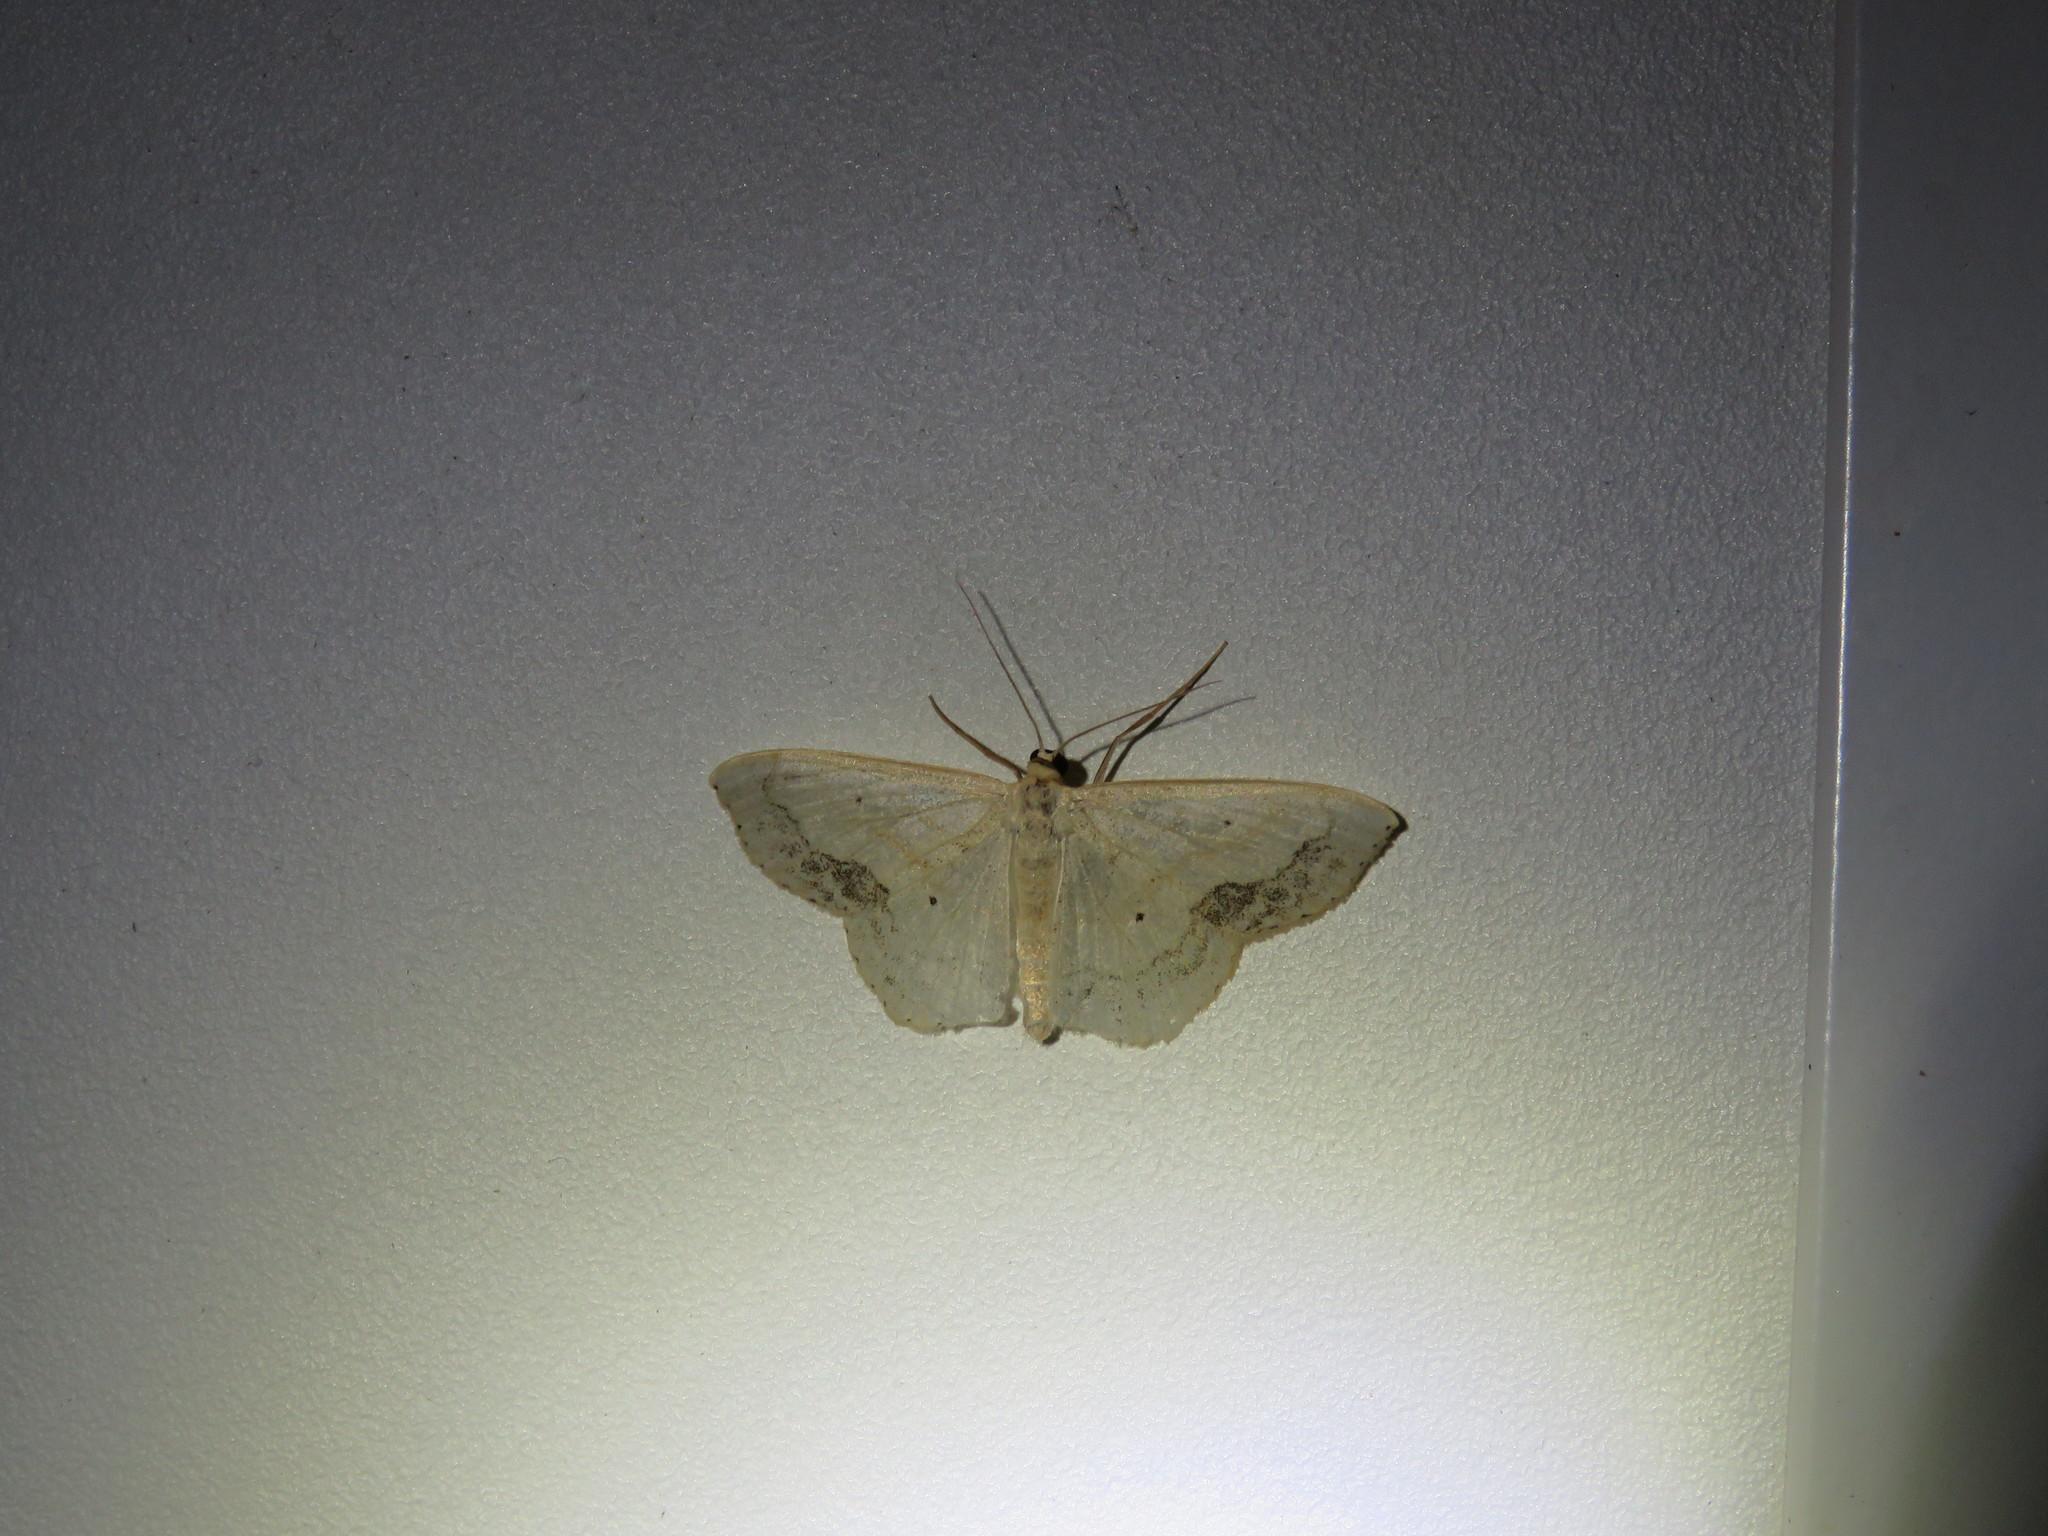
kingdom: Animalia
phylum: Arthropoda
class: Insecta
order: Lepidoptera
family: Geometridae
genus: Scopula
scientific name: Scopula limboundata
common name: Large lace border
